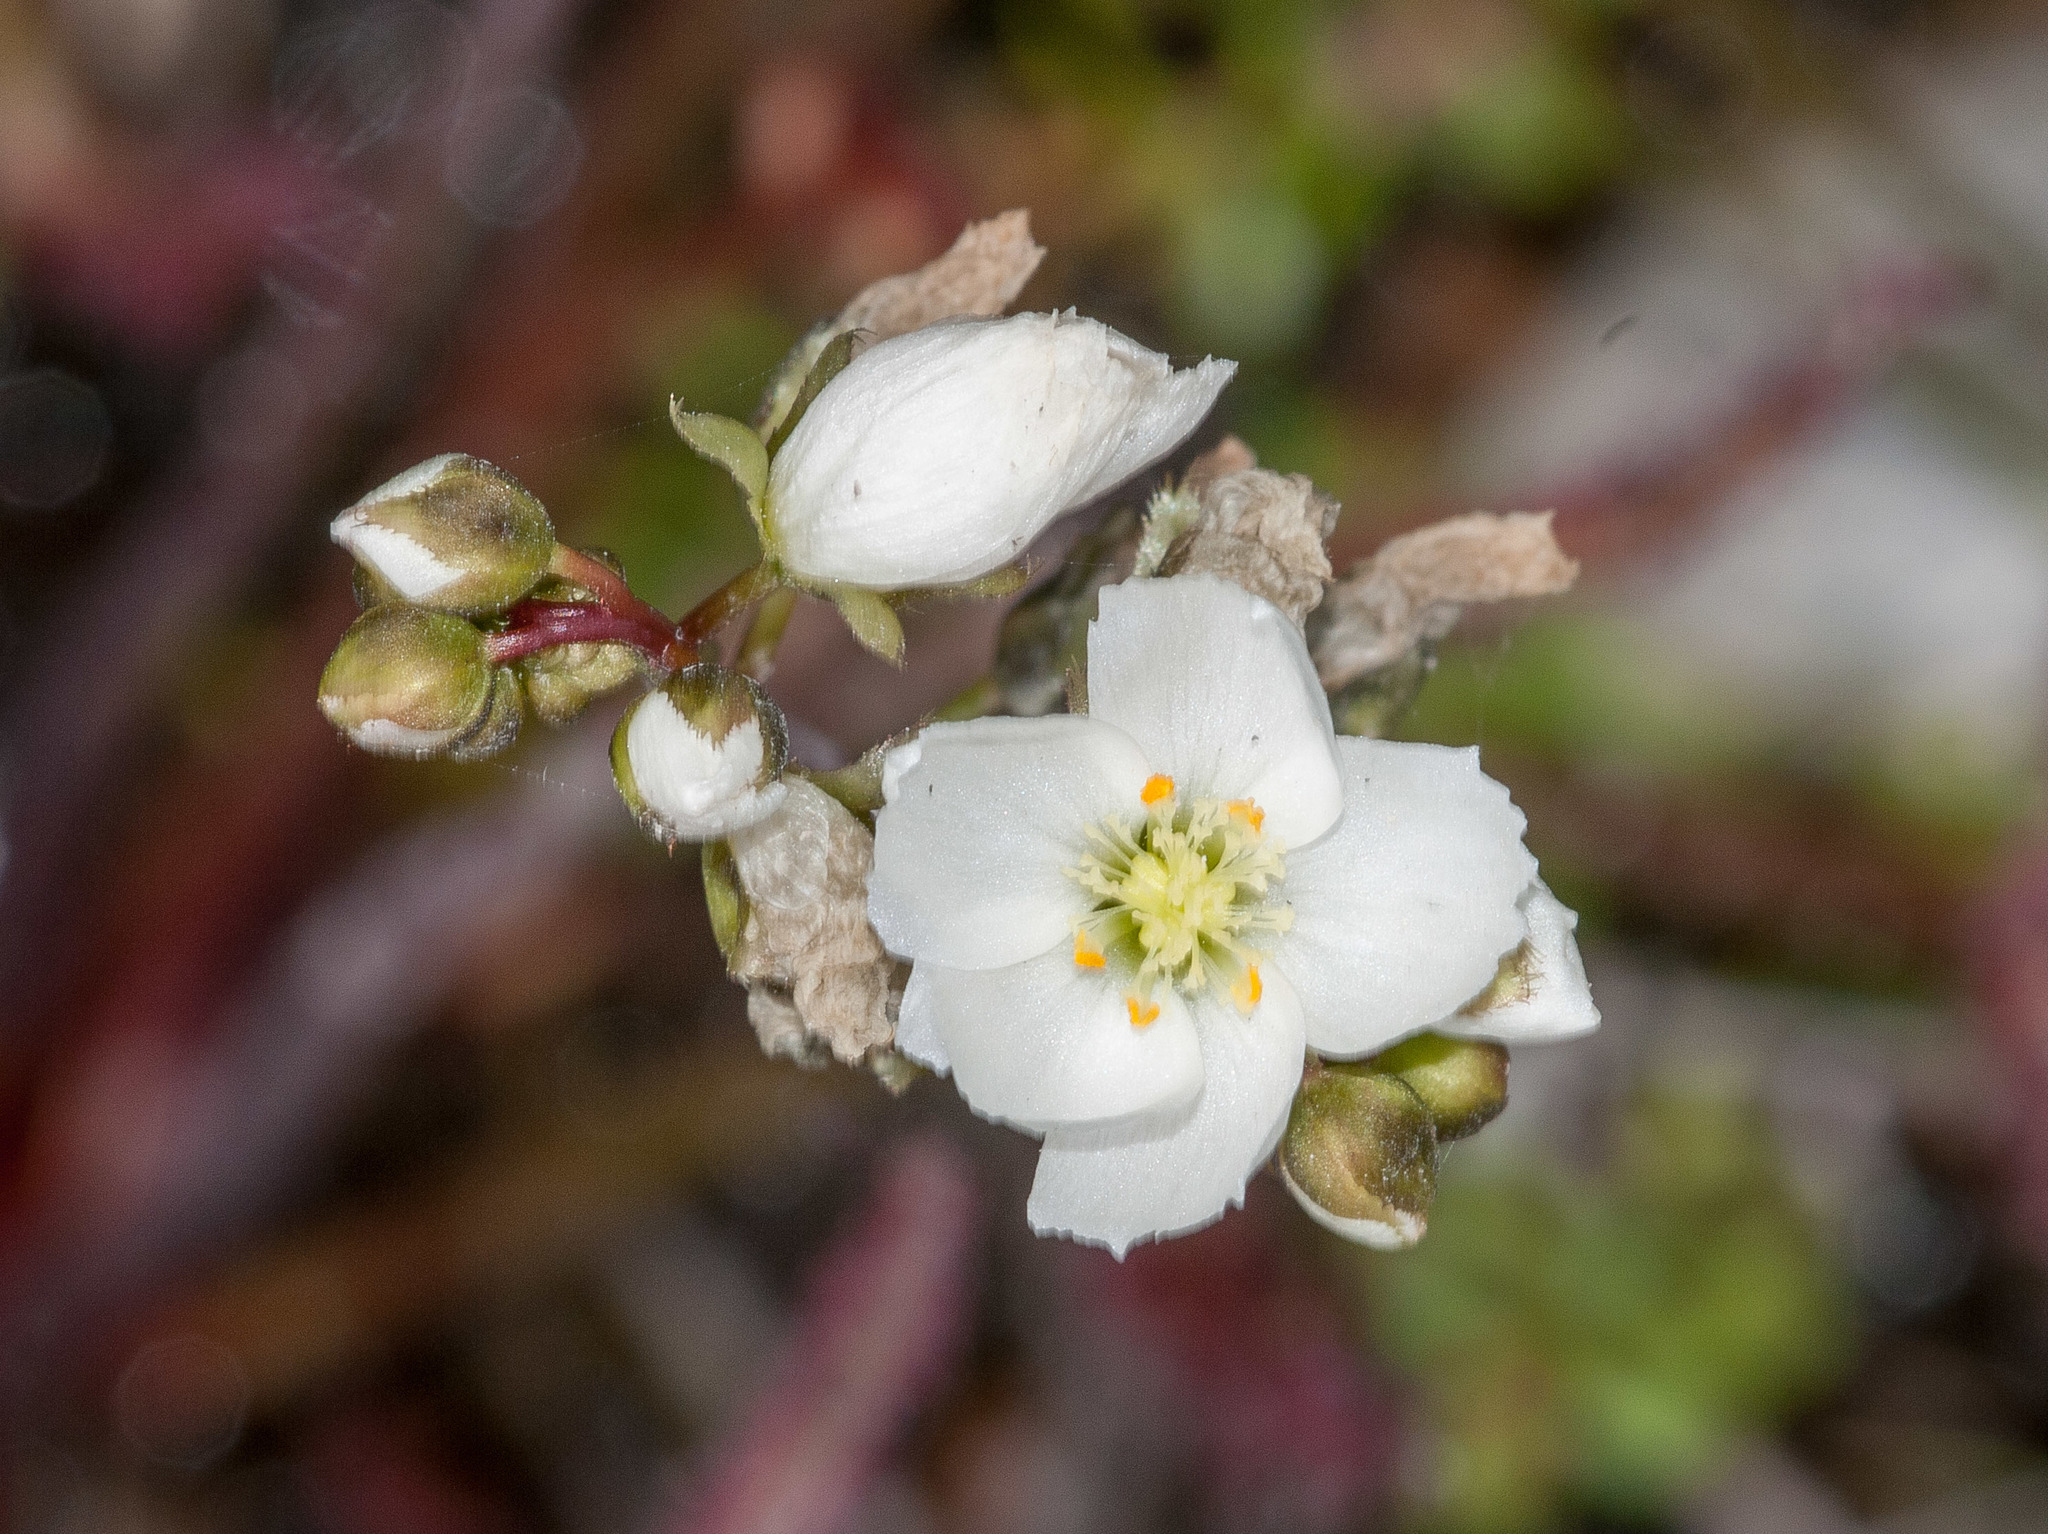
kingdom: Plantae
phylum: Tracheophyta
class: Magnoliopsida
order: Caryophyllales
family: Droseraceae
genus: Drosera
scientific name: Drosera binata
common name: Forked sundew
